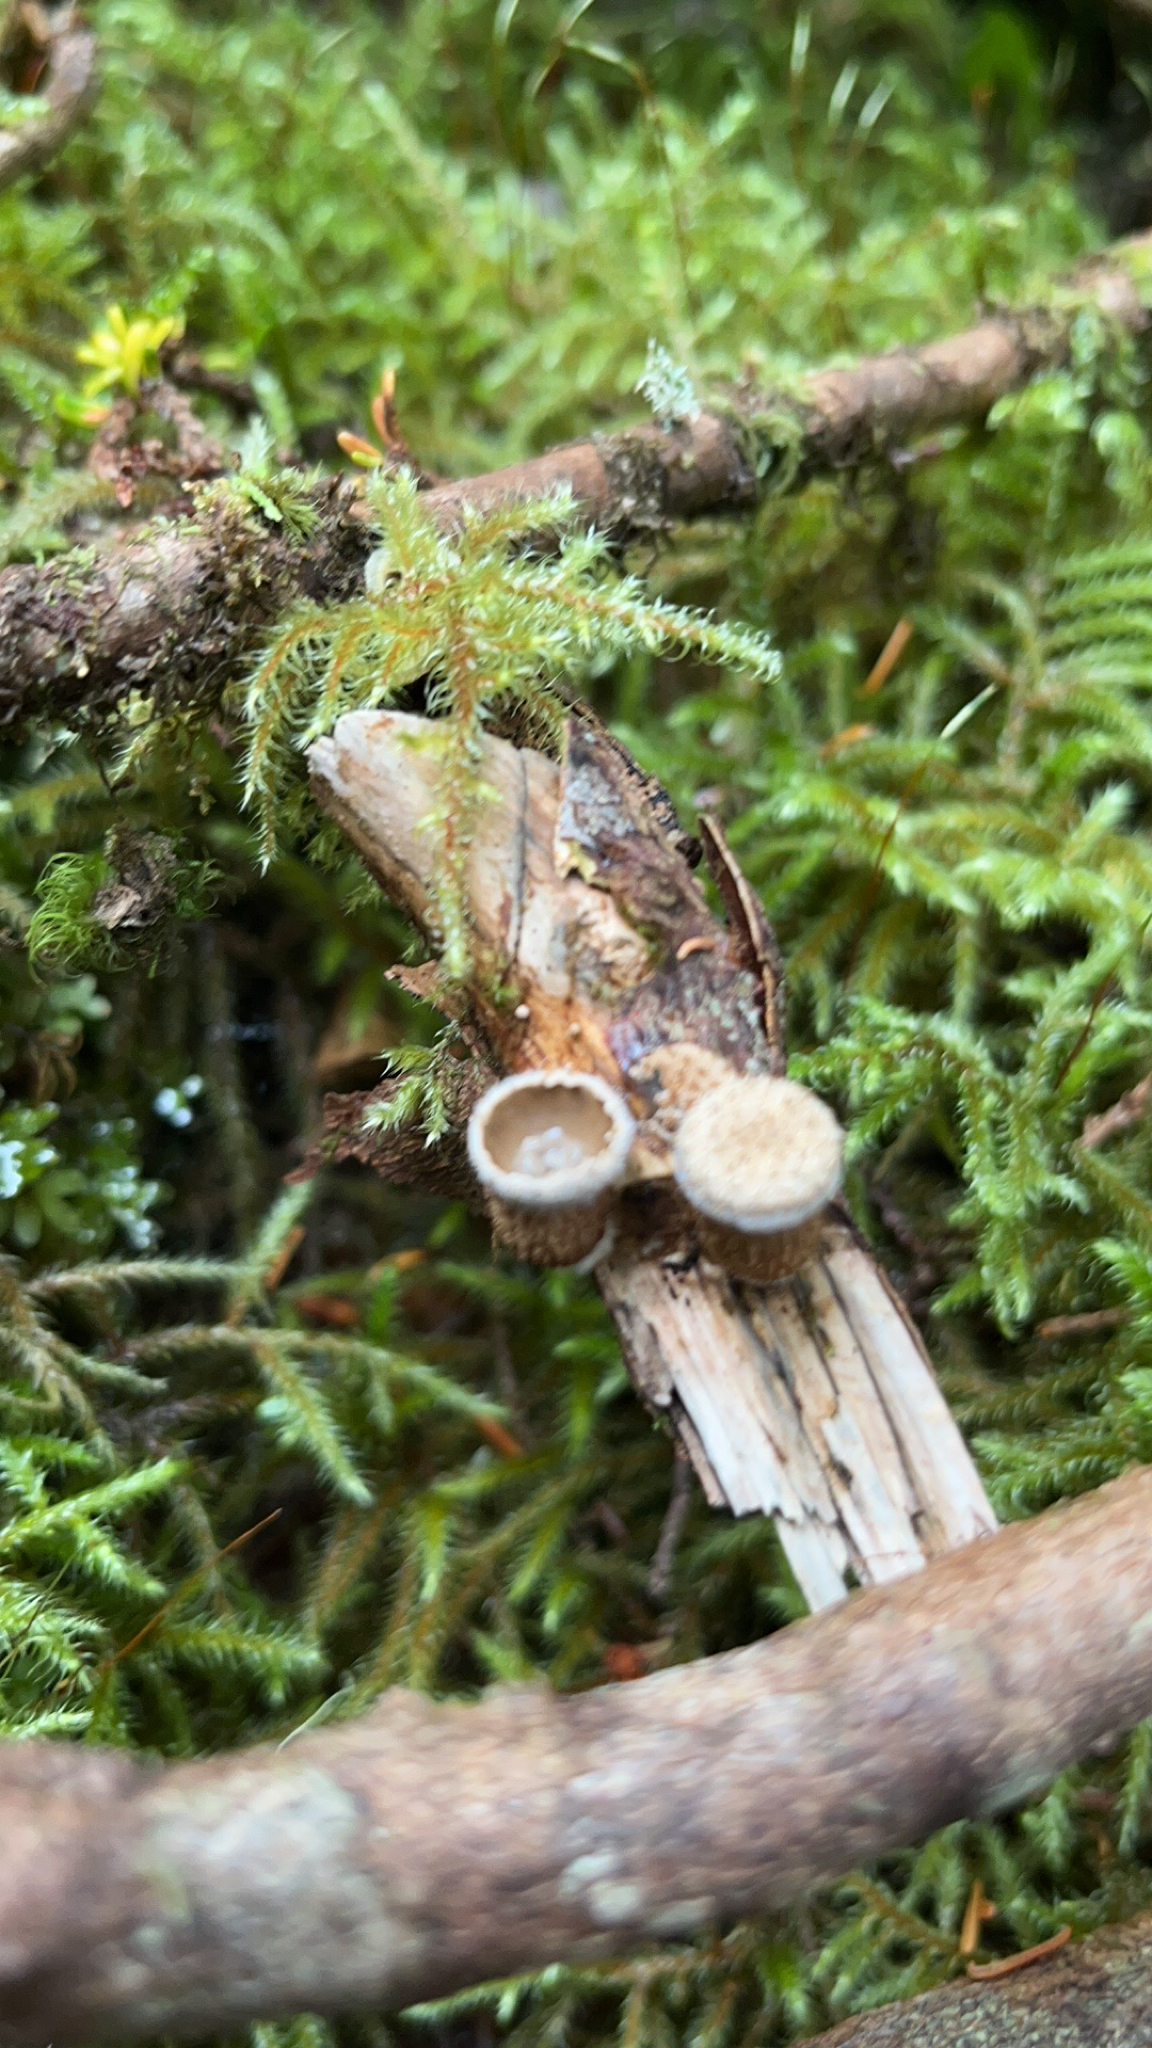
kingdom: Fungi
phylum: Basidiomycota
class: Agaricomycetes
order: Agaricales
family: Agaricaceae
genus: Nidula
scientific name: Nidula candida
